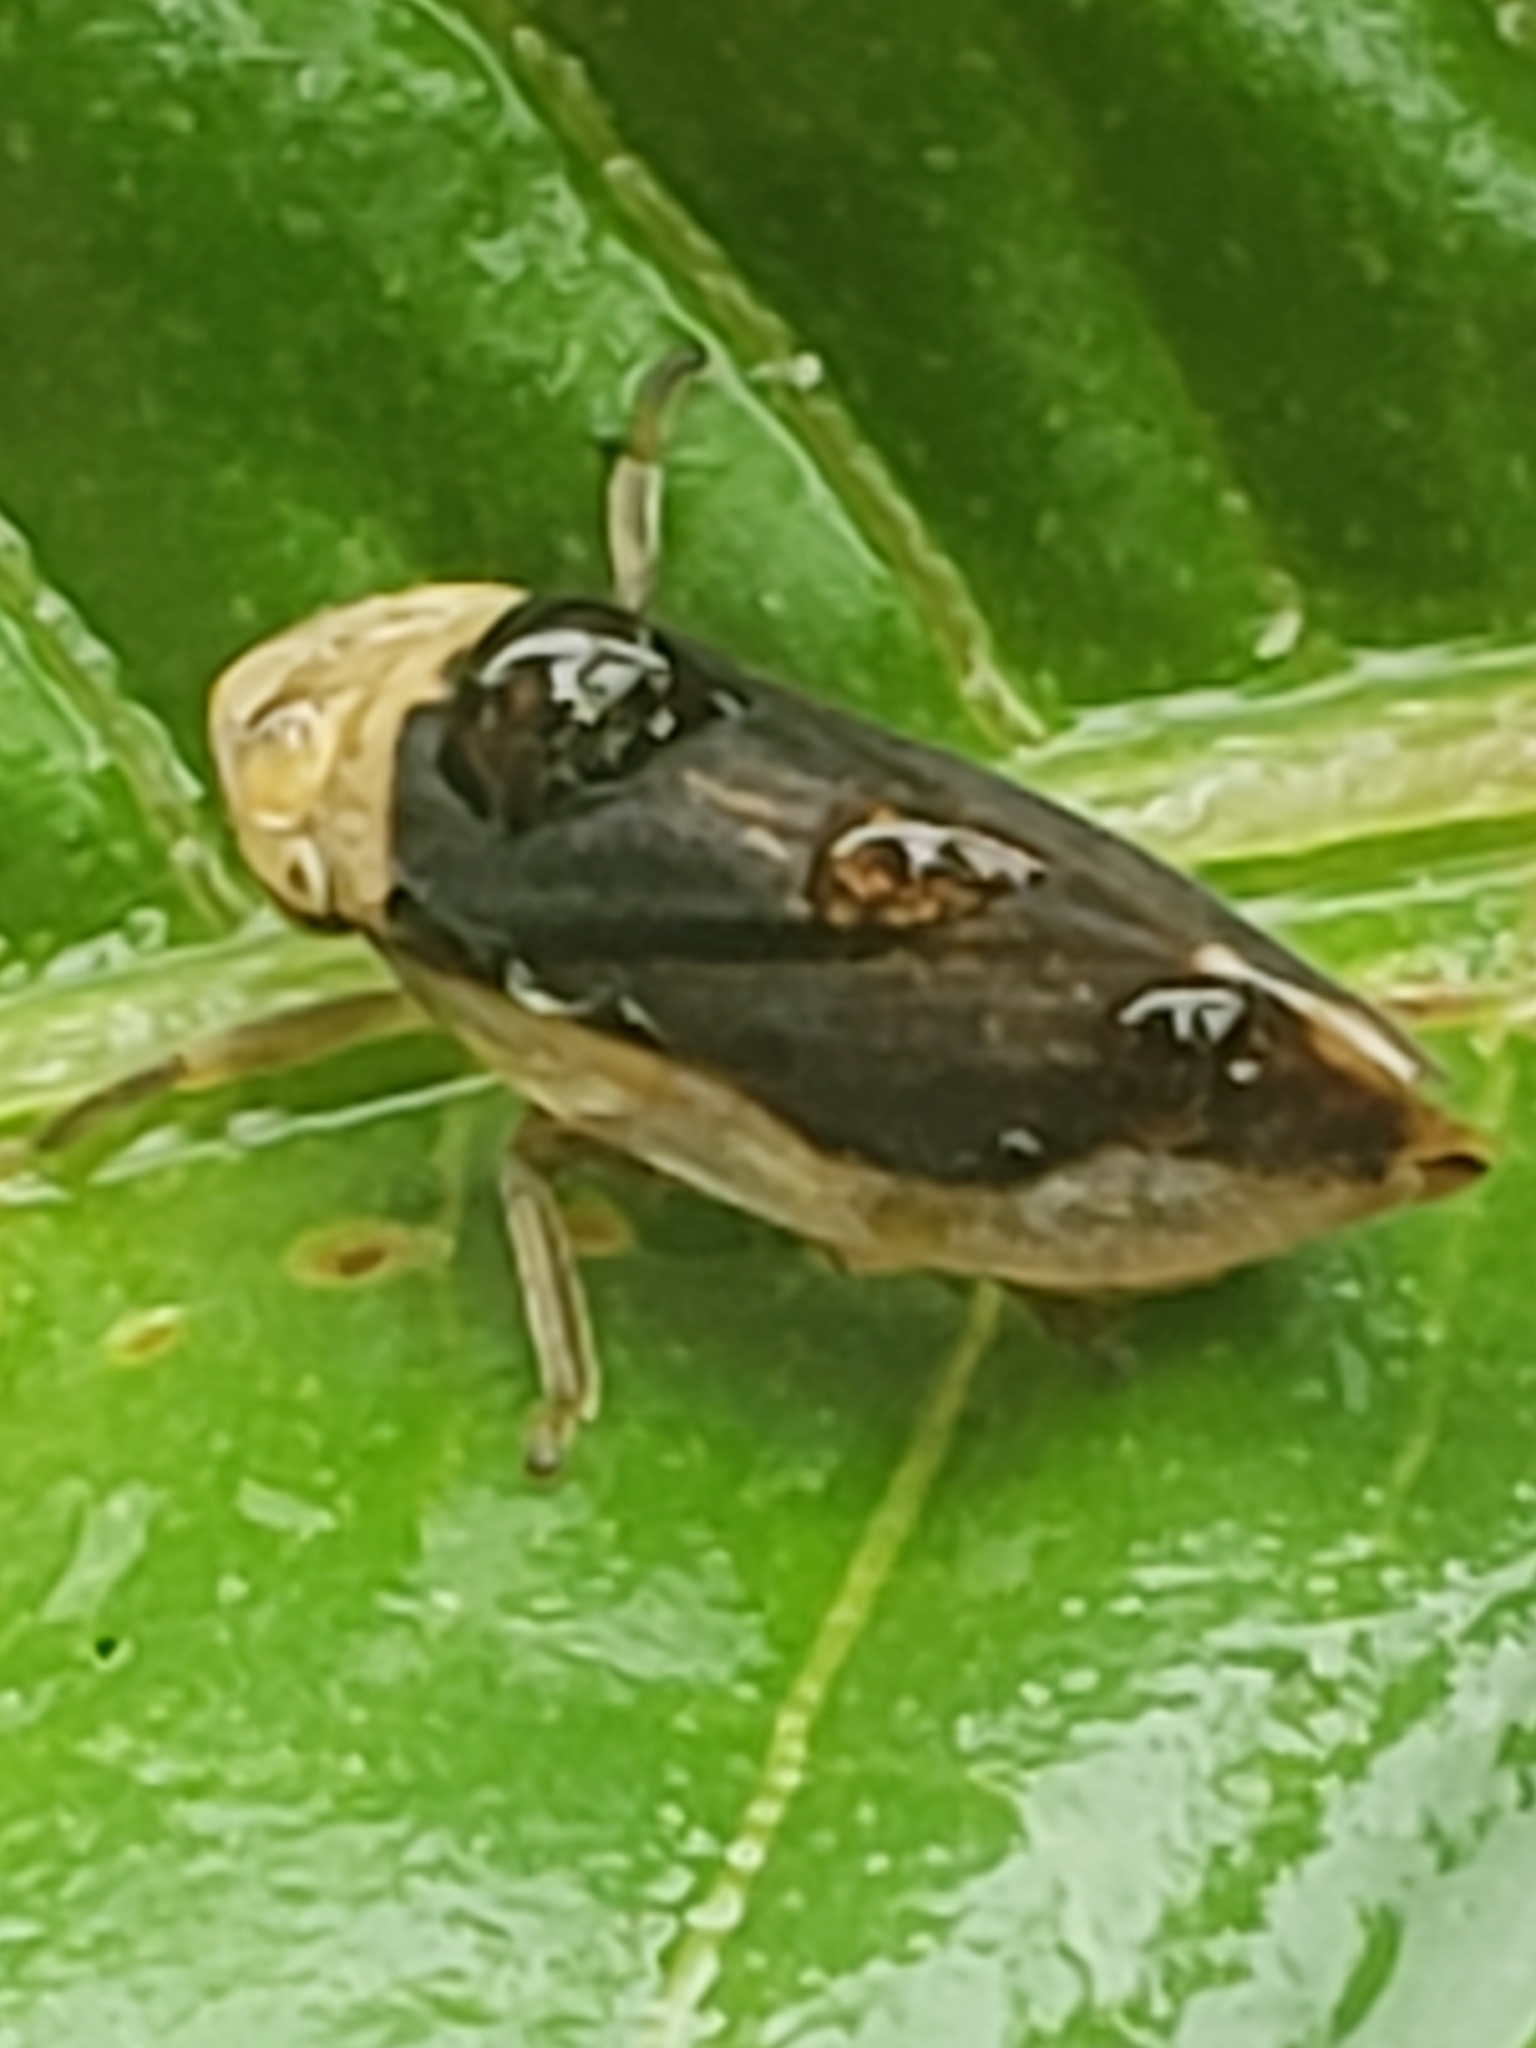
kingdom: Animalia
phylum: Arthropoda
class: Insecta
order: Hemiptera
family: Aphrophoridae
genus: Philaenus
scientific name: Philaenus spumarius
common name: Meadow spittlebug
